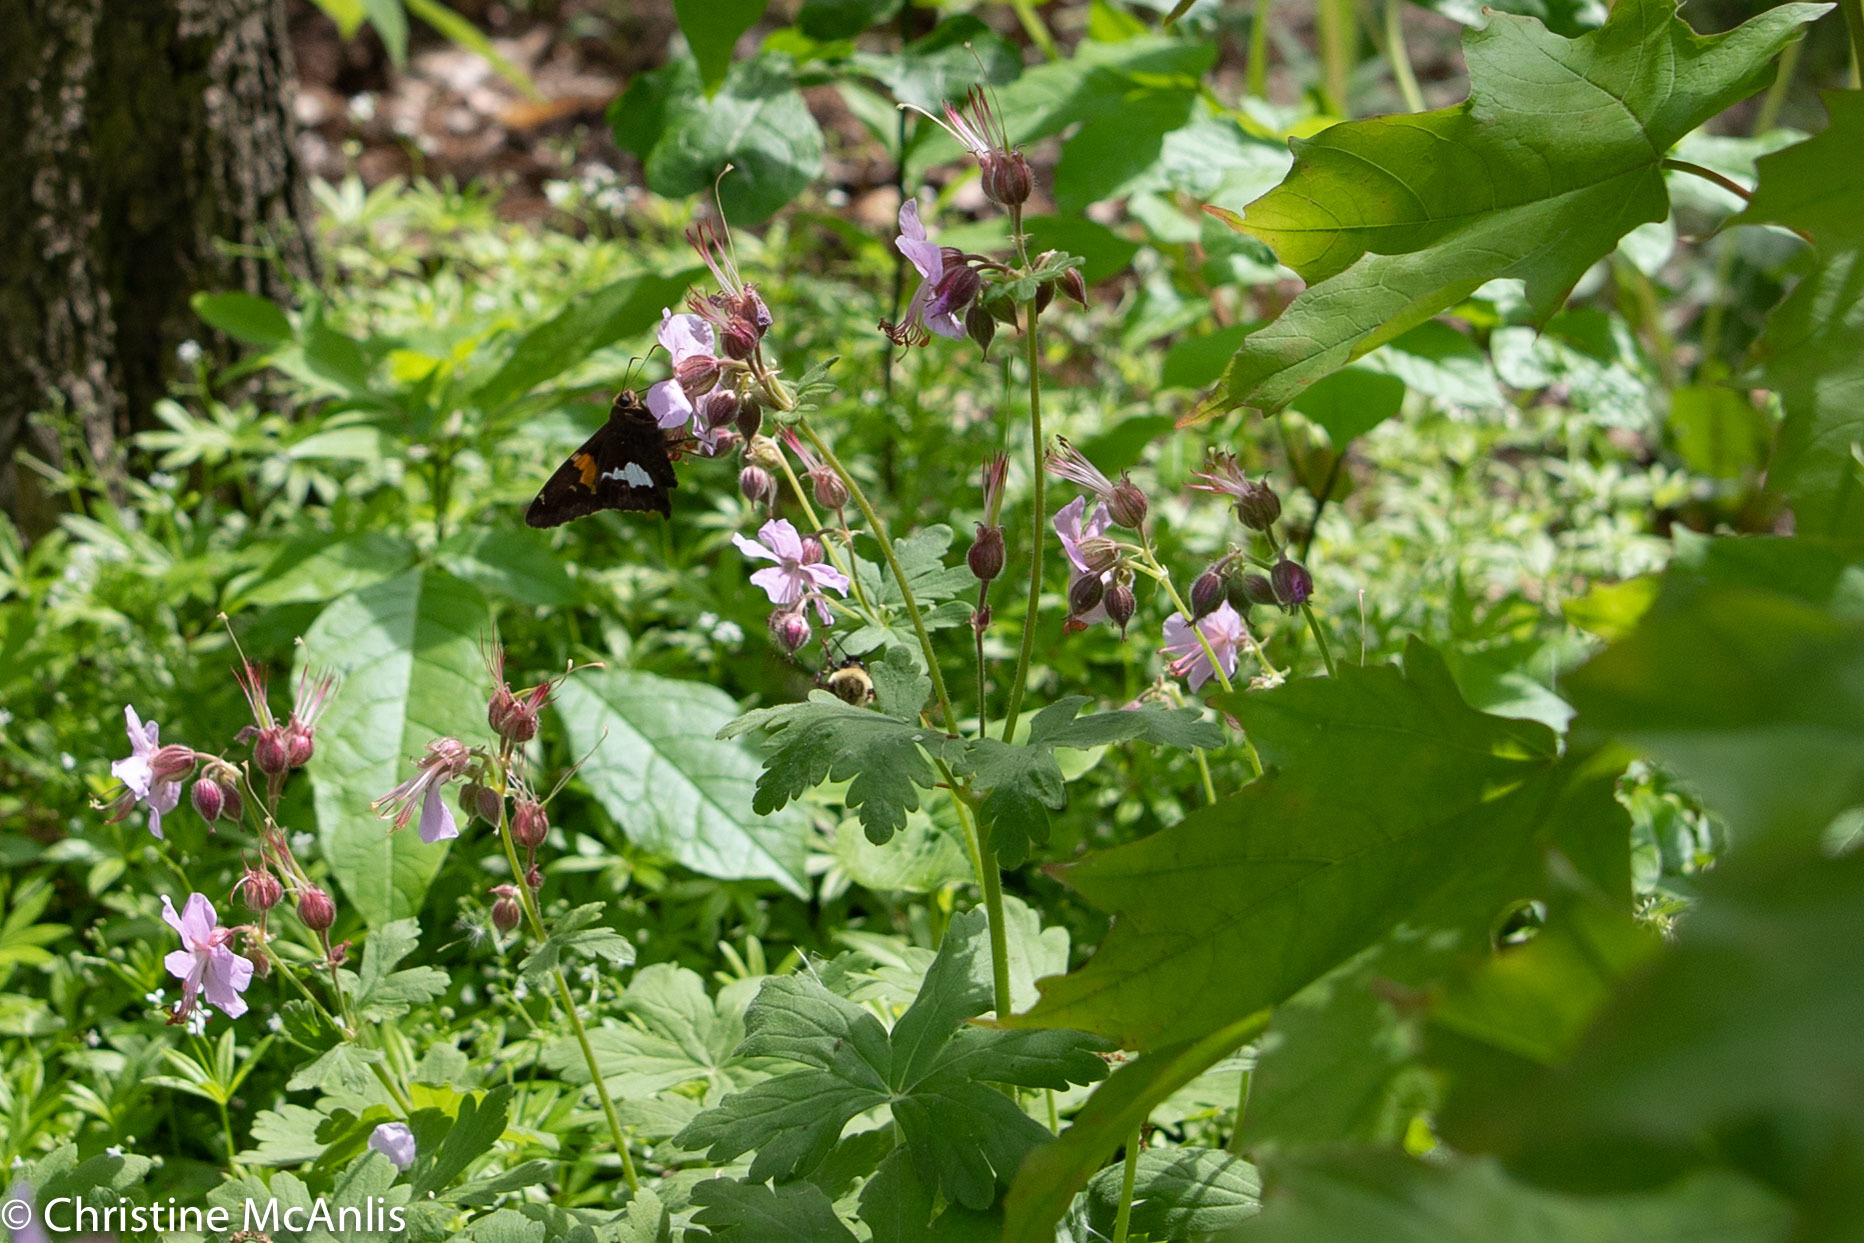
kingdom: Animalia
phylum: Arthropoda
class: Insecta
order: Lepidoptera
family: Hesperiidae
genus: Epargyreus
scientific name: Epargyreus clarus
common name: Silver-spotted skipper
